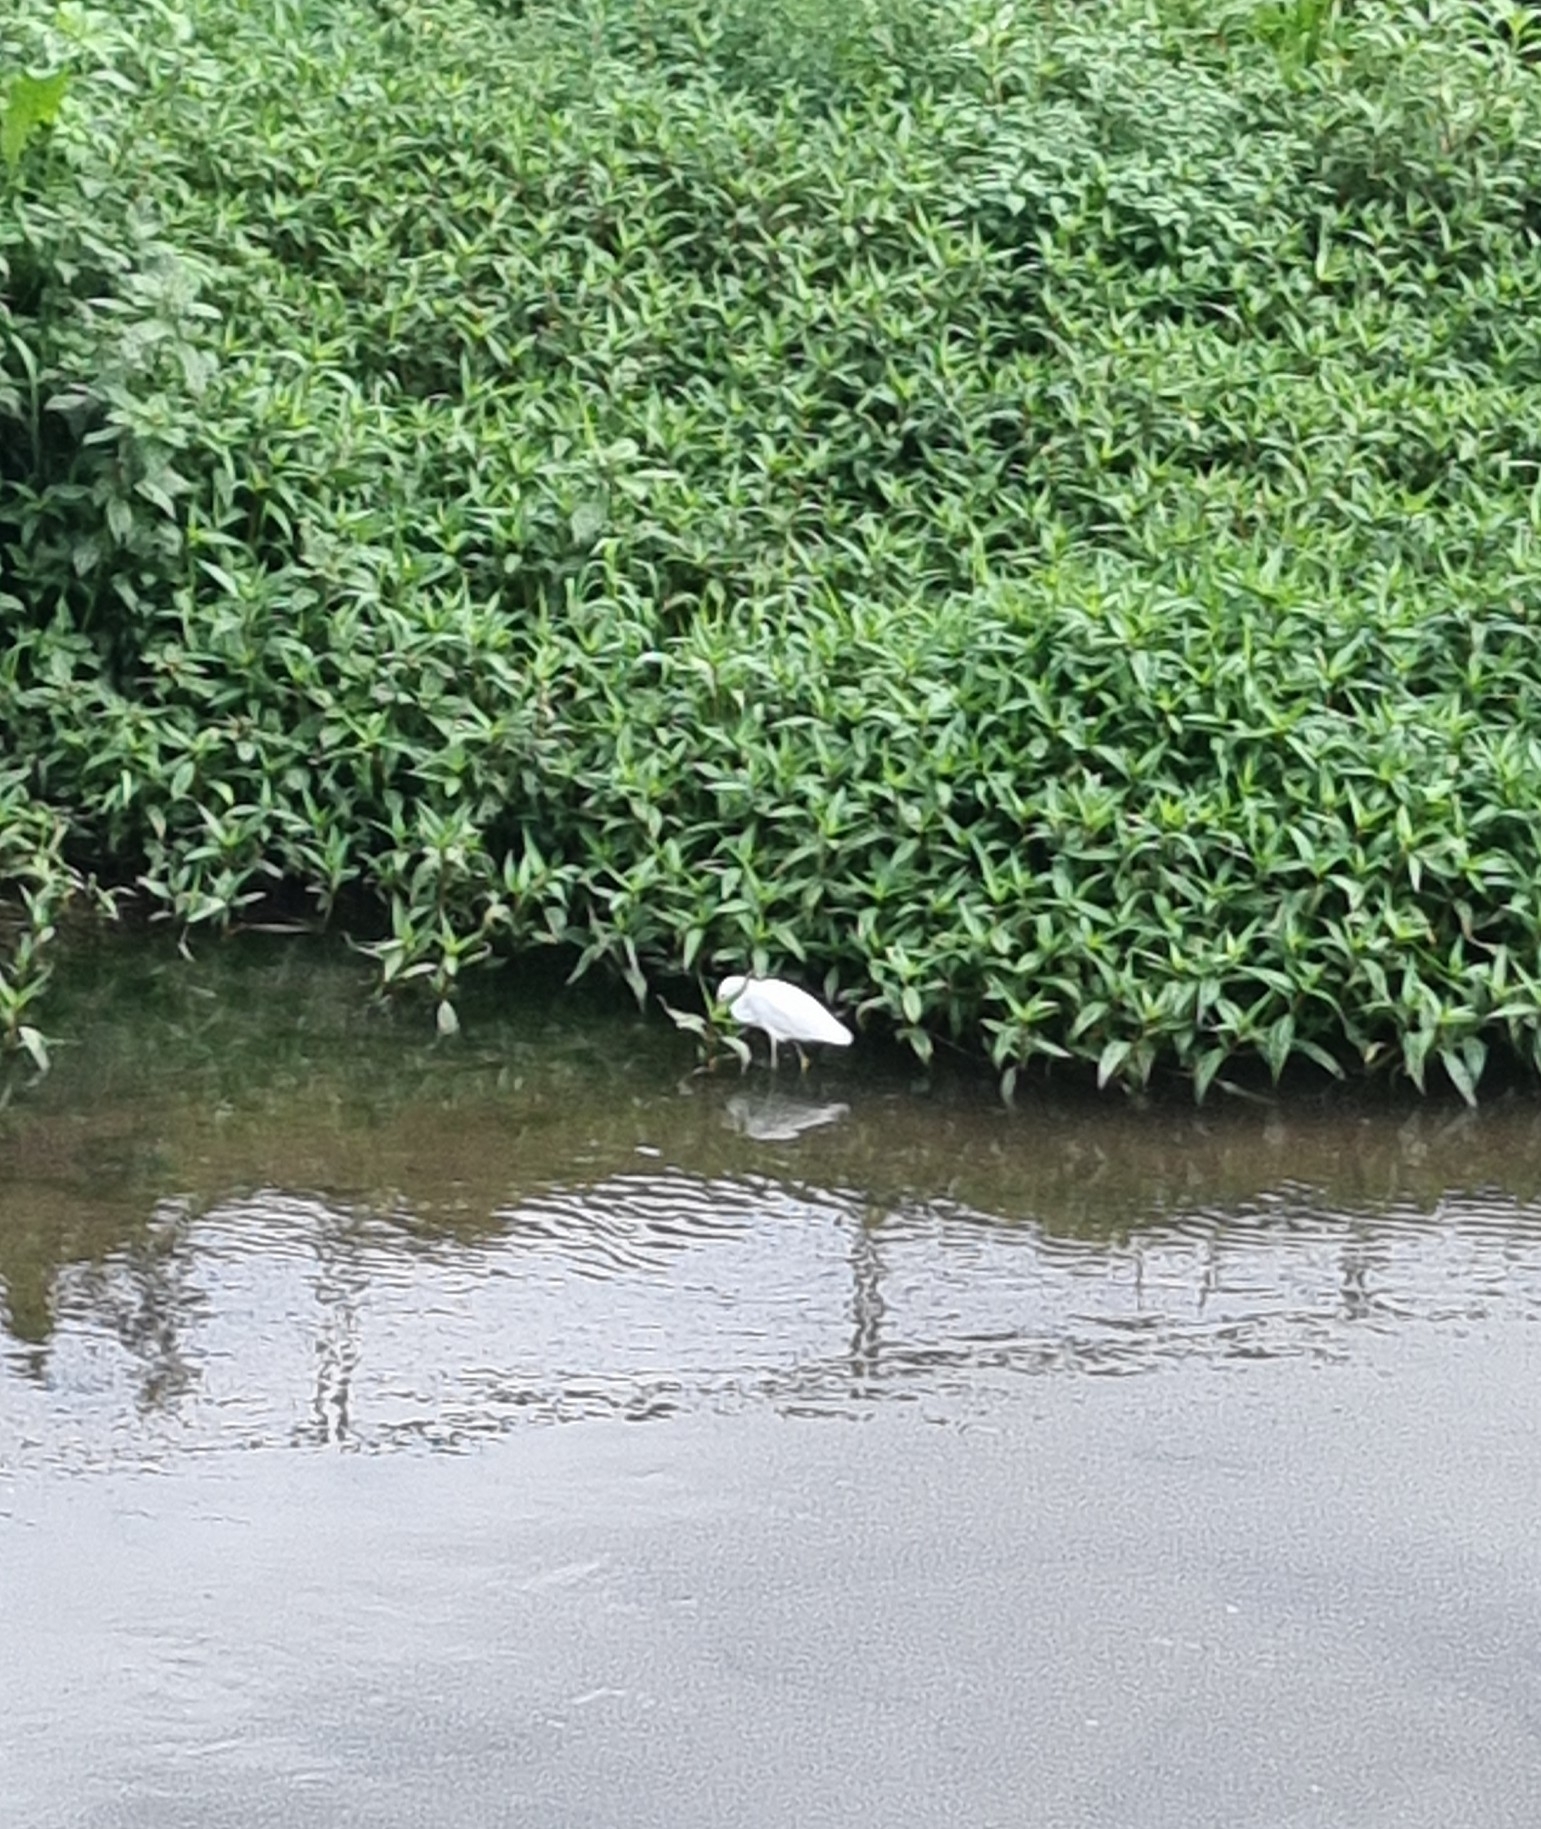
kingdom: Animalia
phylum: Chordata
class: Aves
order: Pelecaniformes
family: Ardeidae
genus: Egretta
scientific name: Egretta thula
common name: Snowy egret
